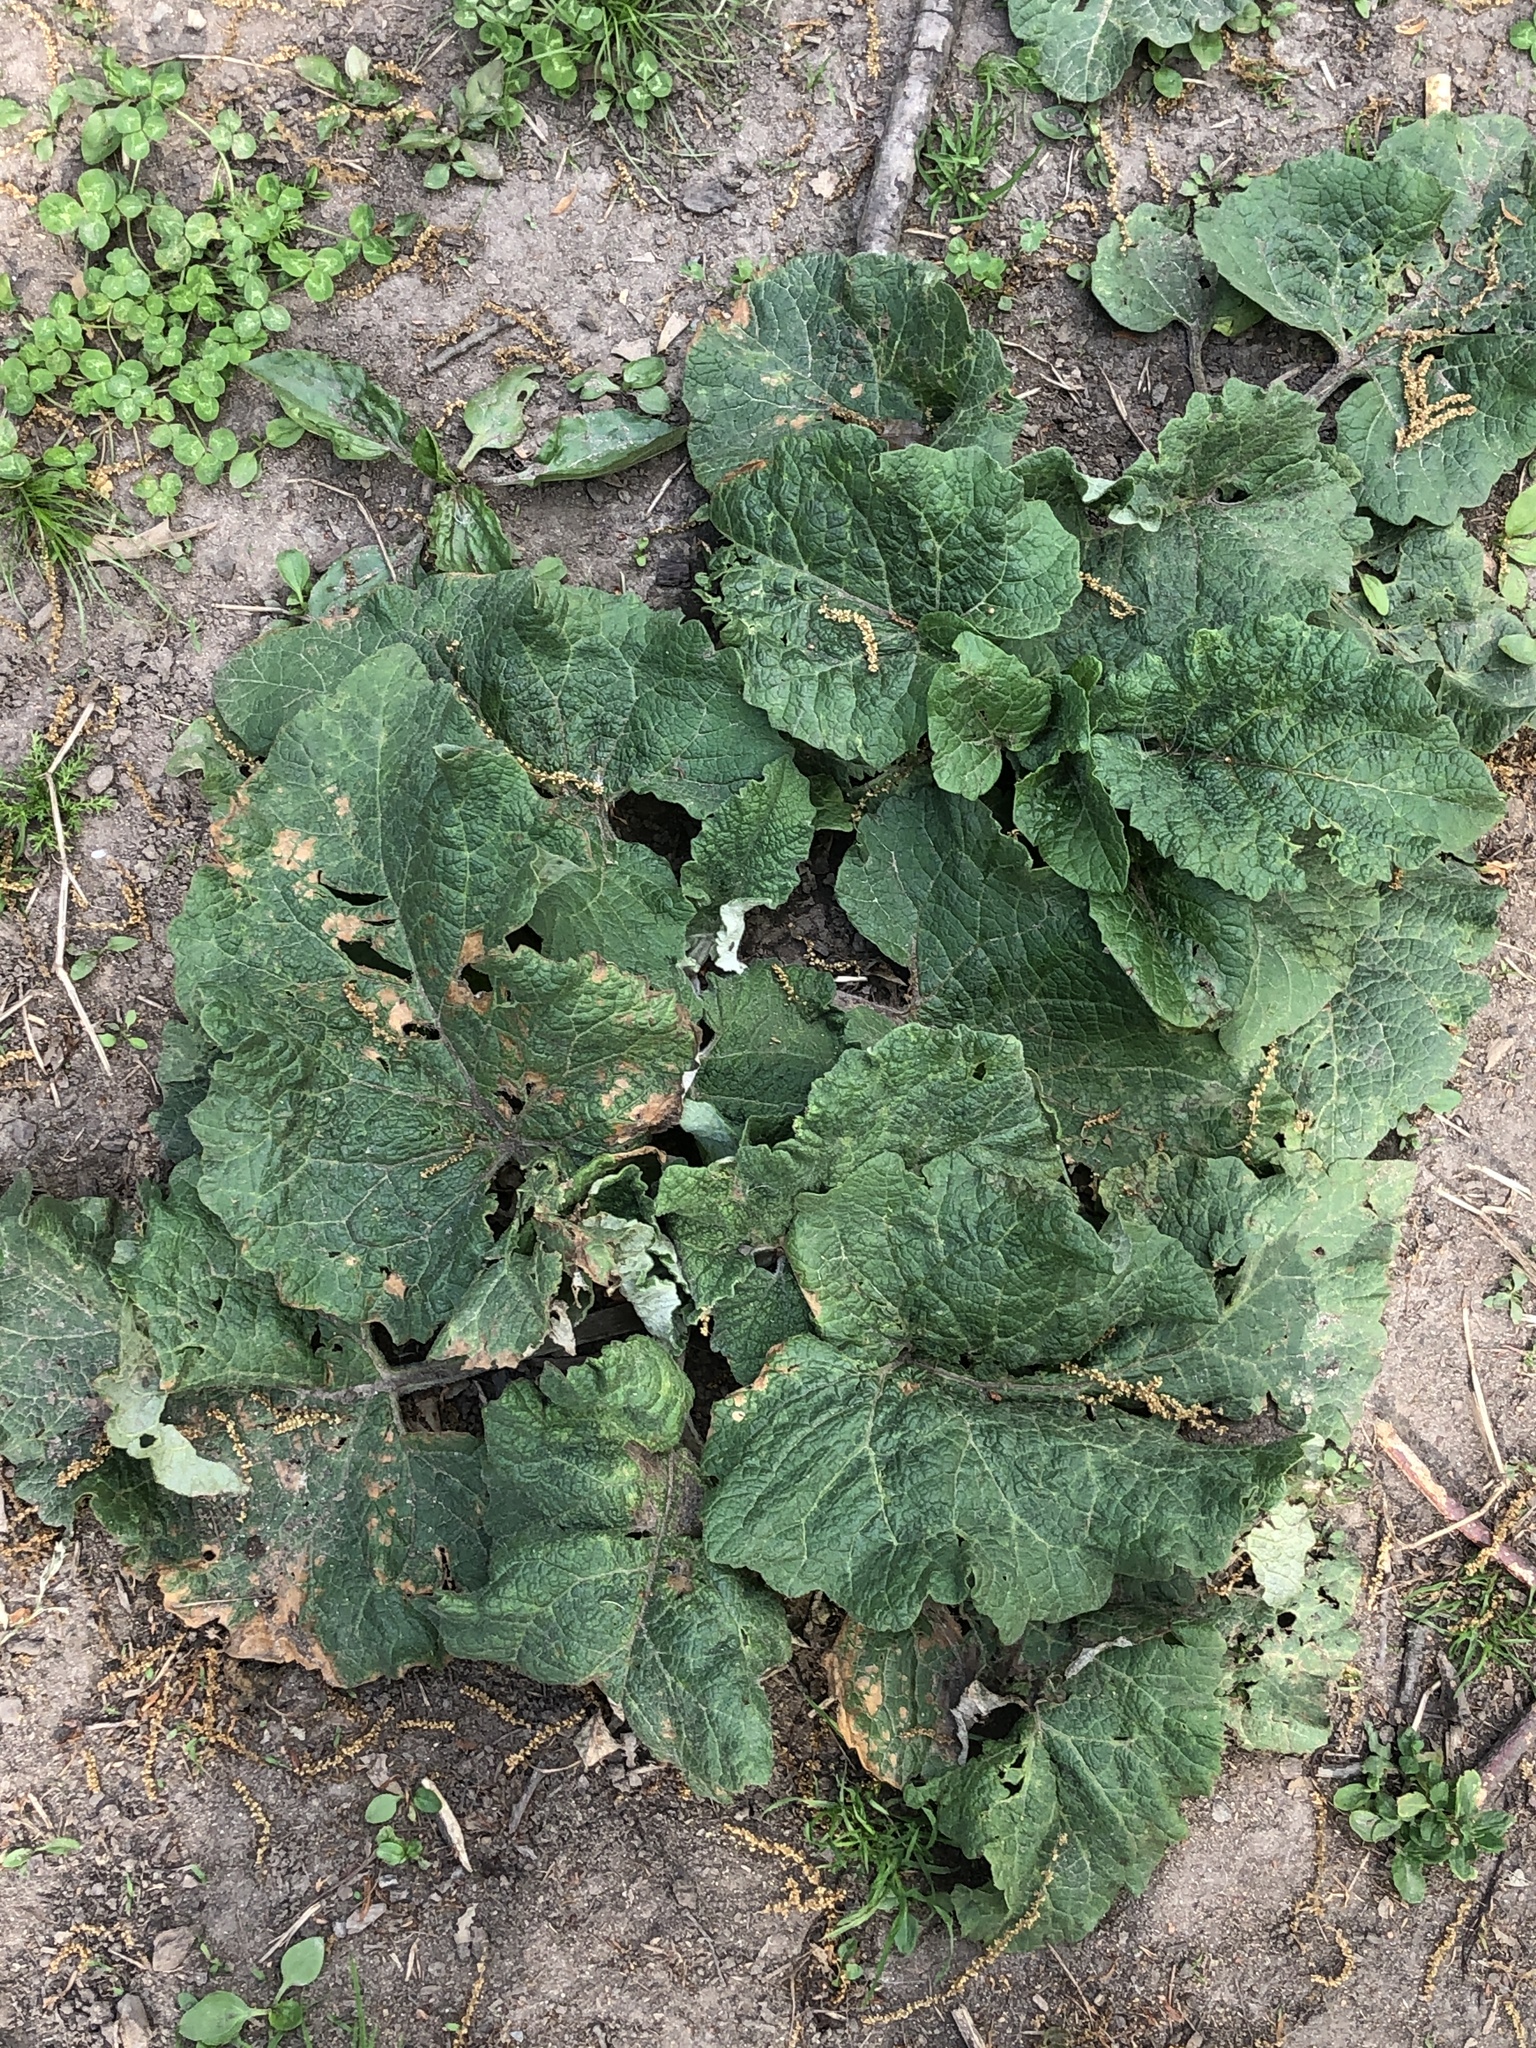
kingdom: Plantae
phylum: Tracheophyta
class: Magnoliopsida
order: Asterales
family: Asteraceae
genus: Arctium
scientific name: Arctium
